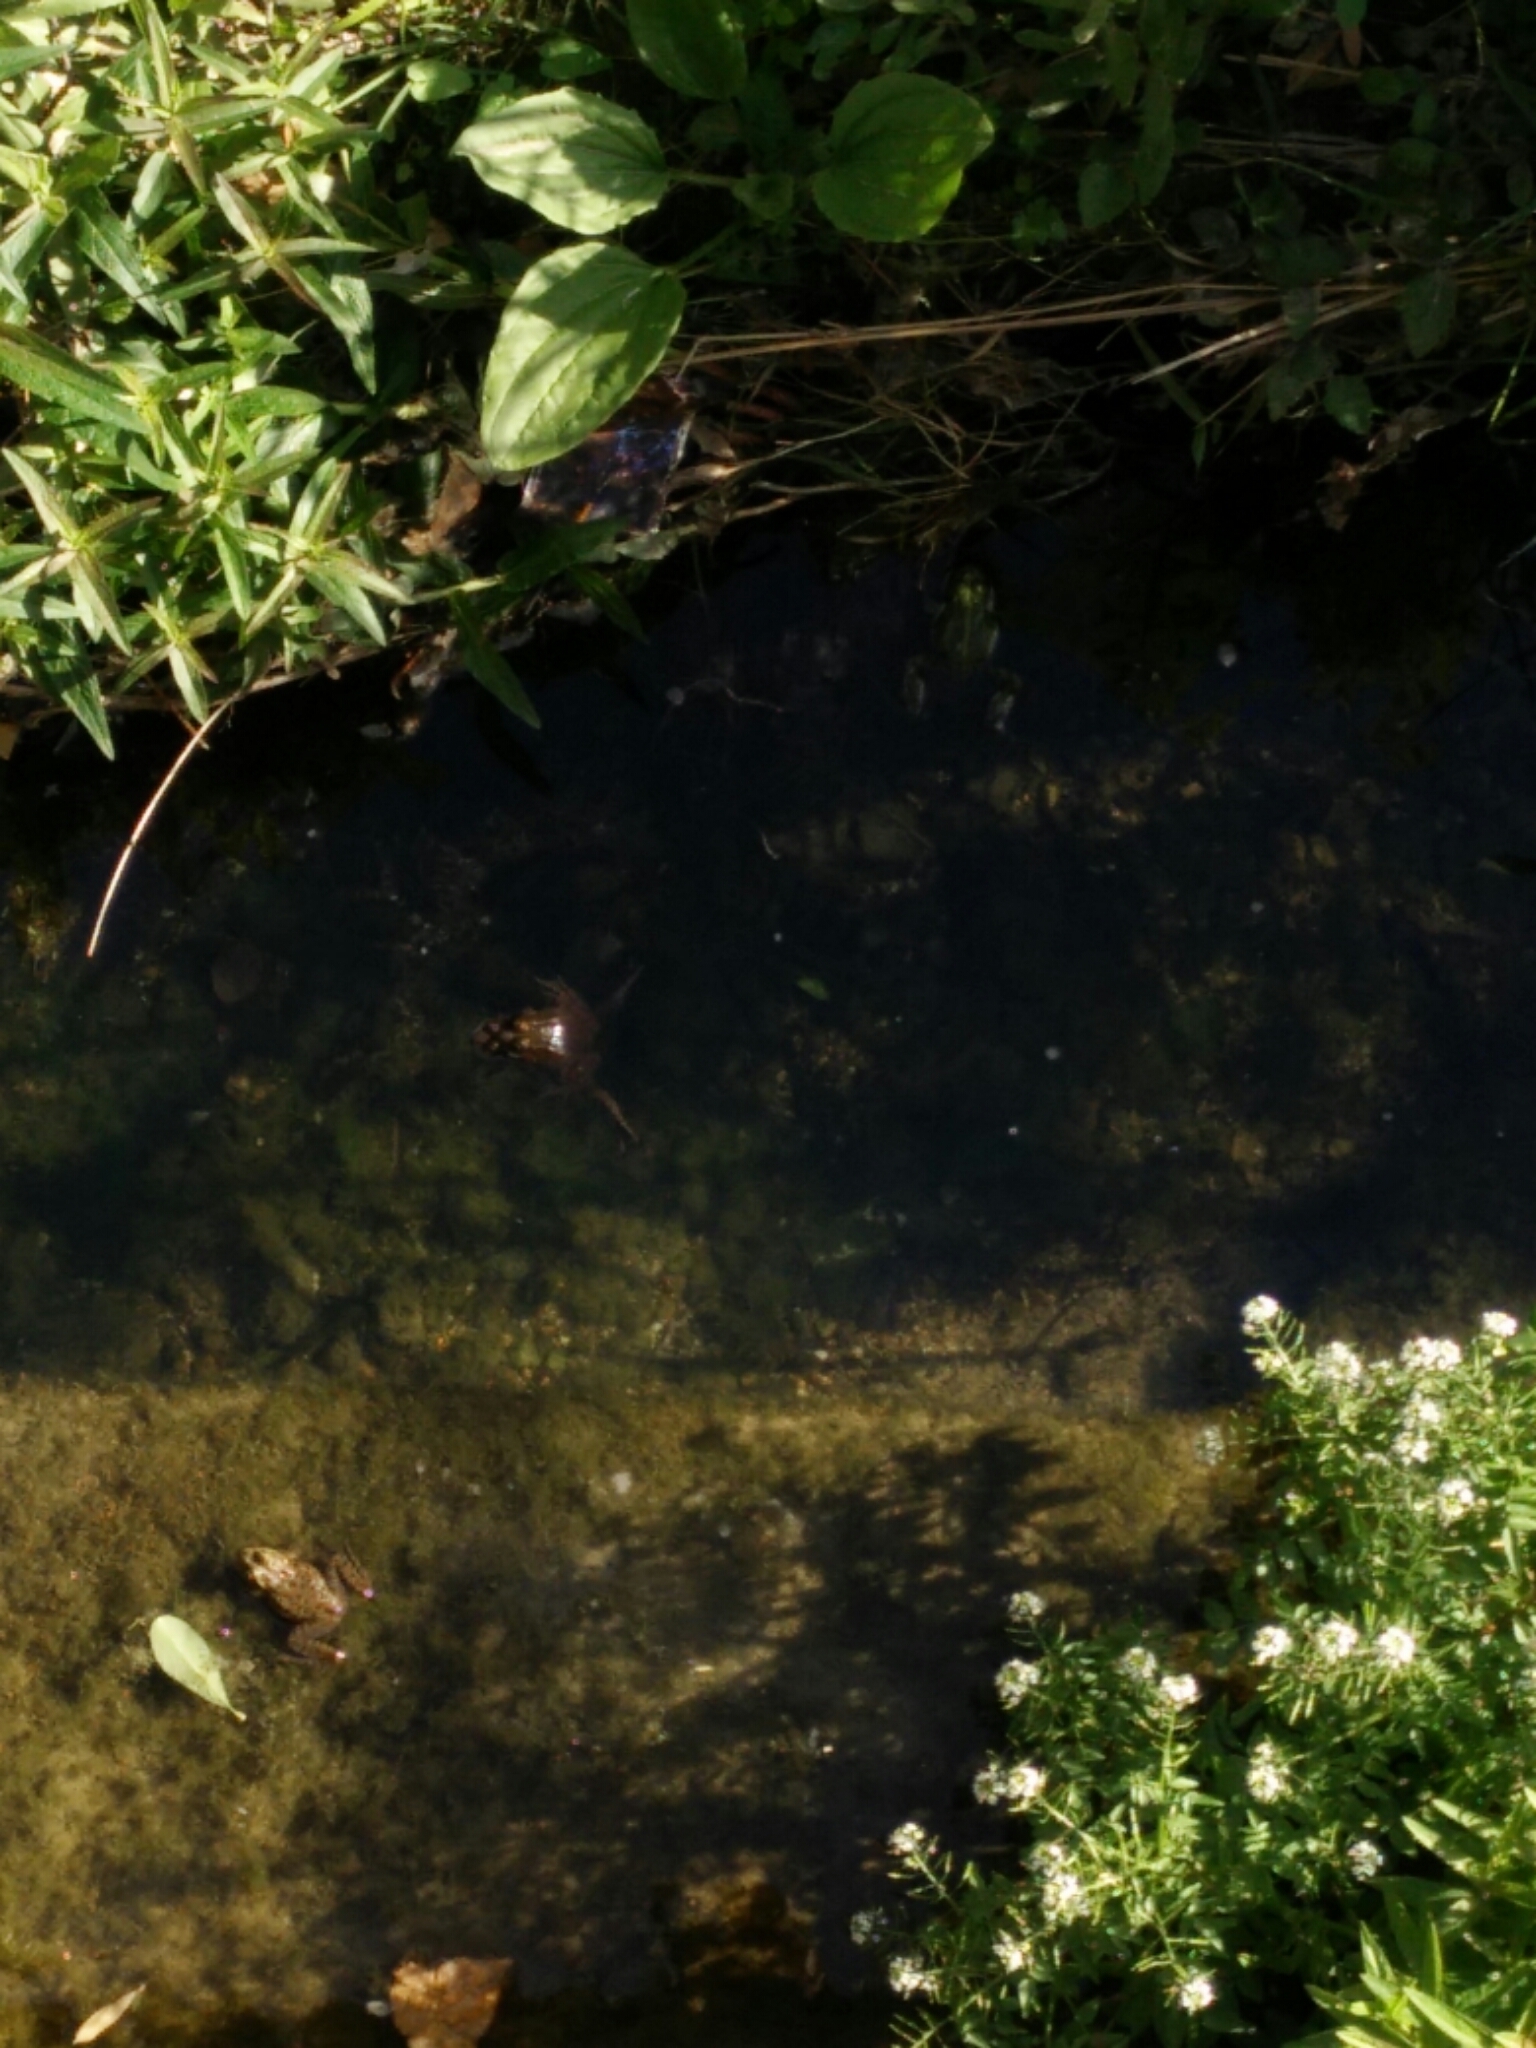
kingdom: Animalia
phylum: Chordata
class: Amphibia
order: Anura
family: Ranidae
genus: Pelophylax
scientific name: Pelophylax
